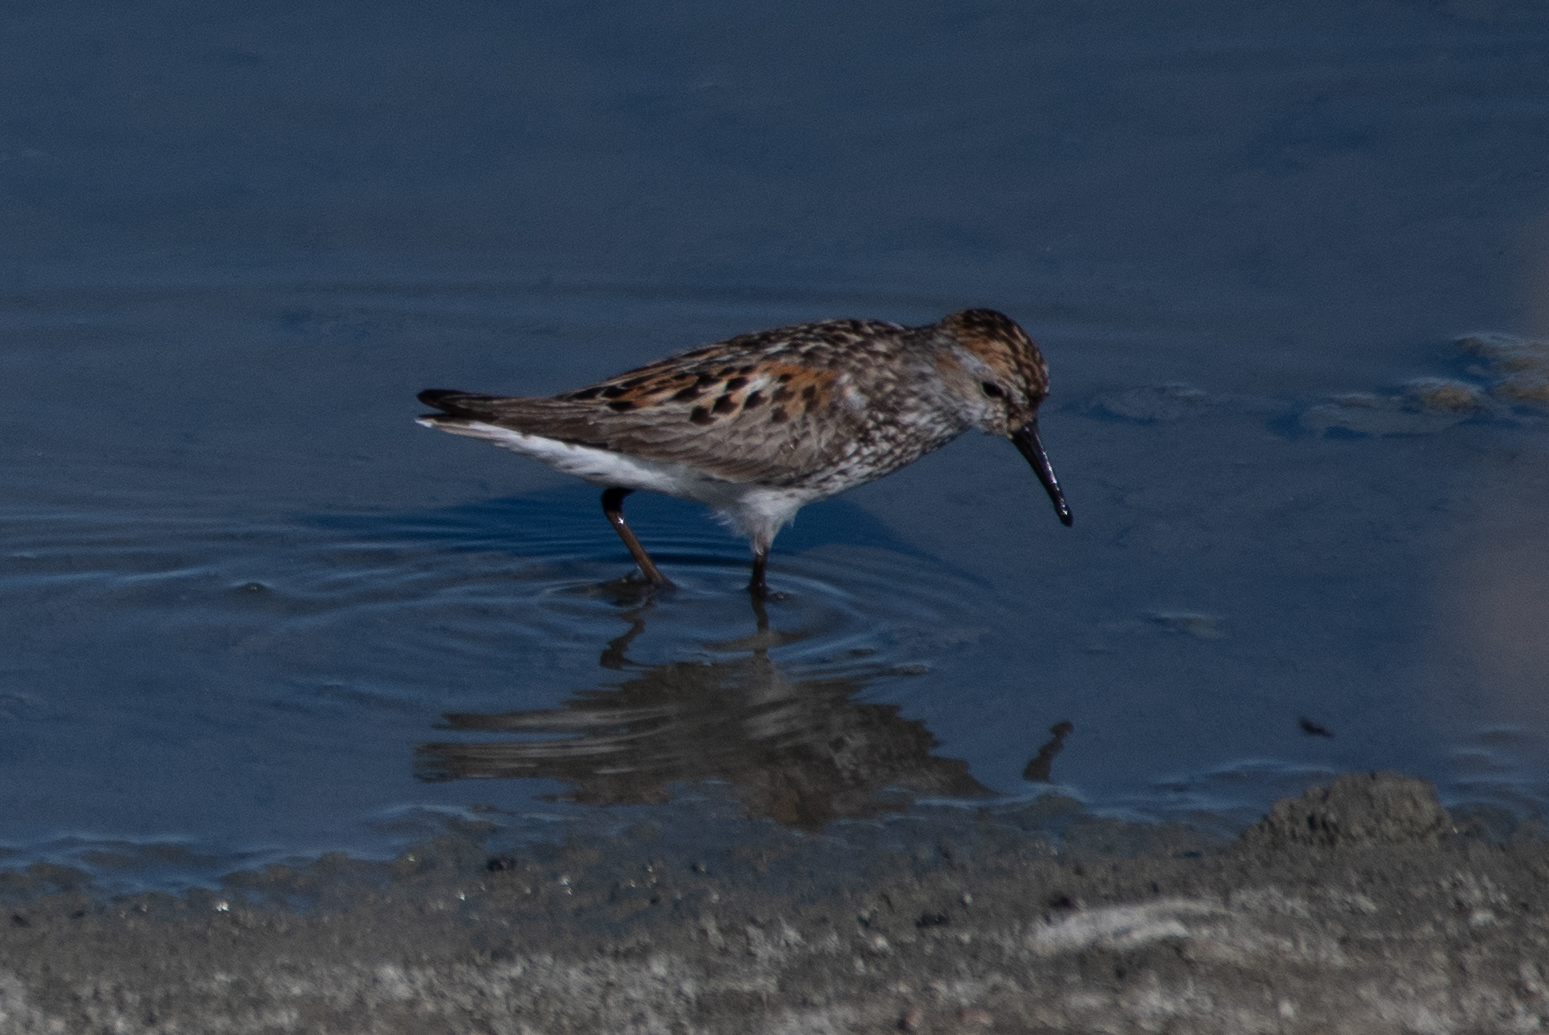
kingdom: Animalia
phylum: Chordata
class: Aves
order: Charadriiformes
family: Scolopacidae
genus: Calidris
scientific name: Calidris mauri
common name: Western sandpiper
